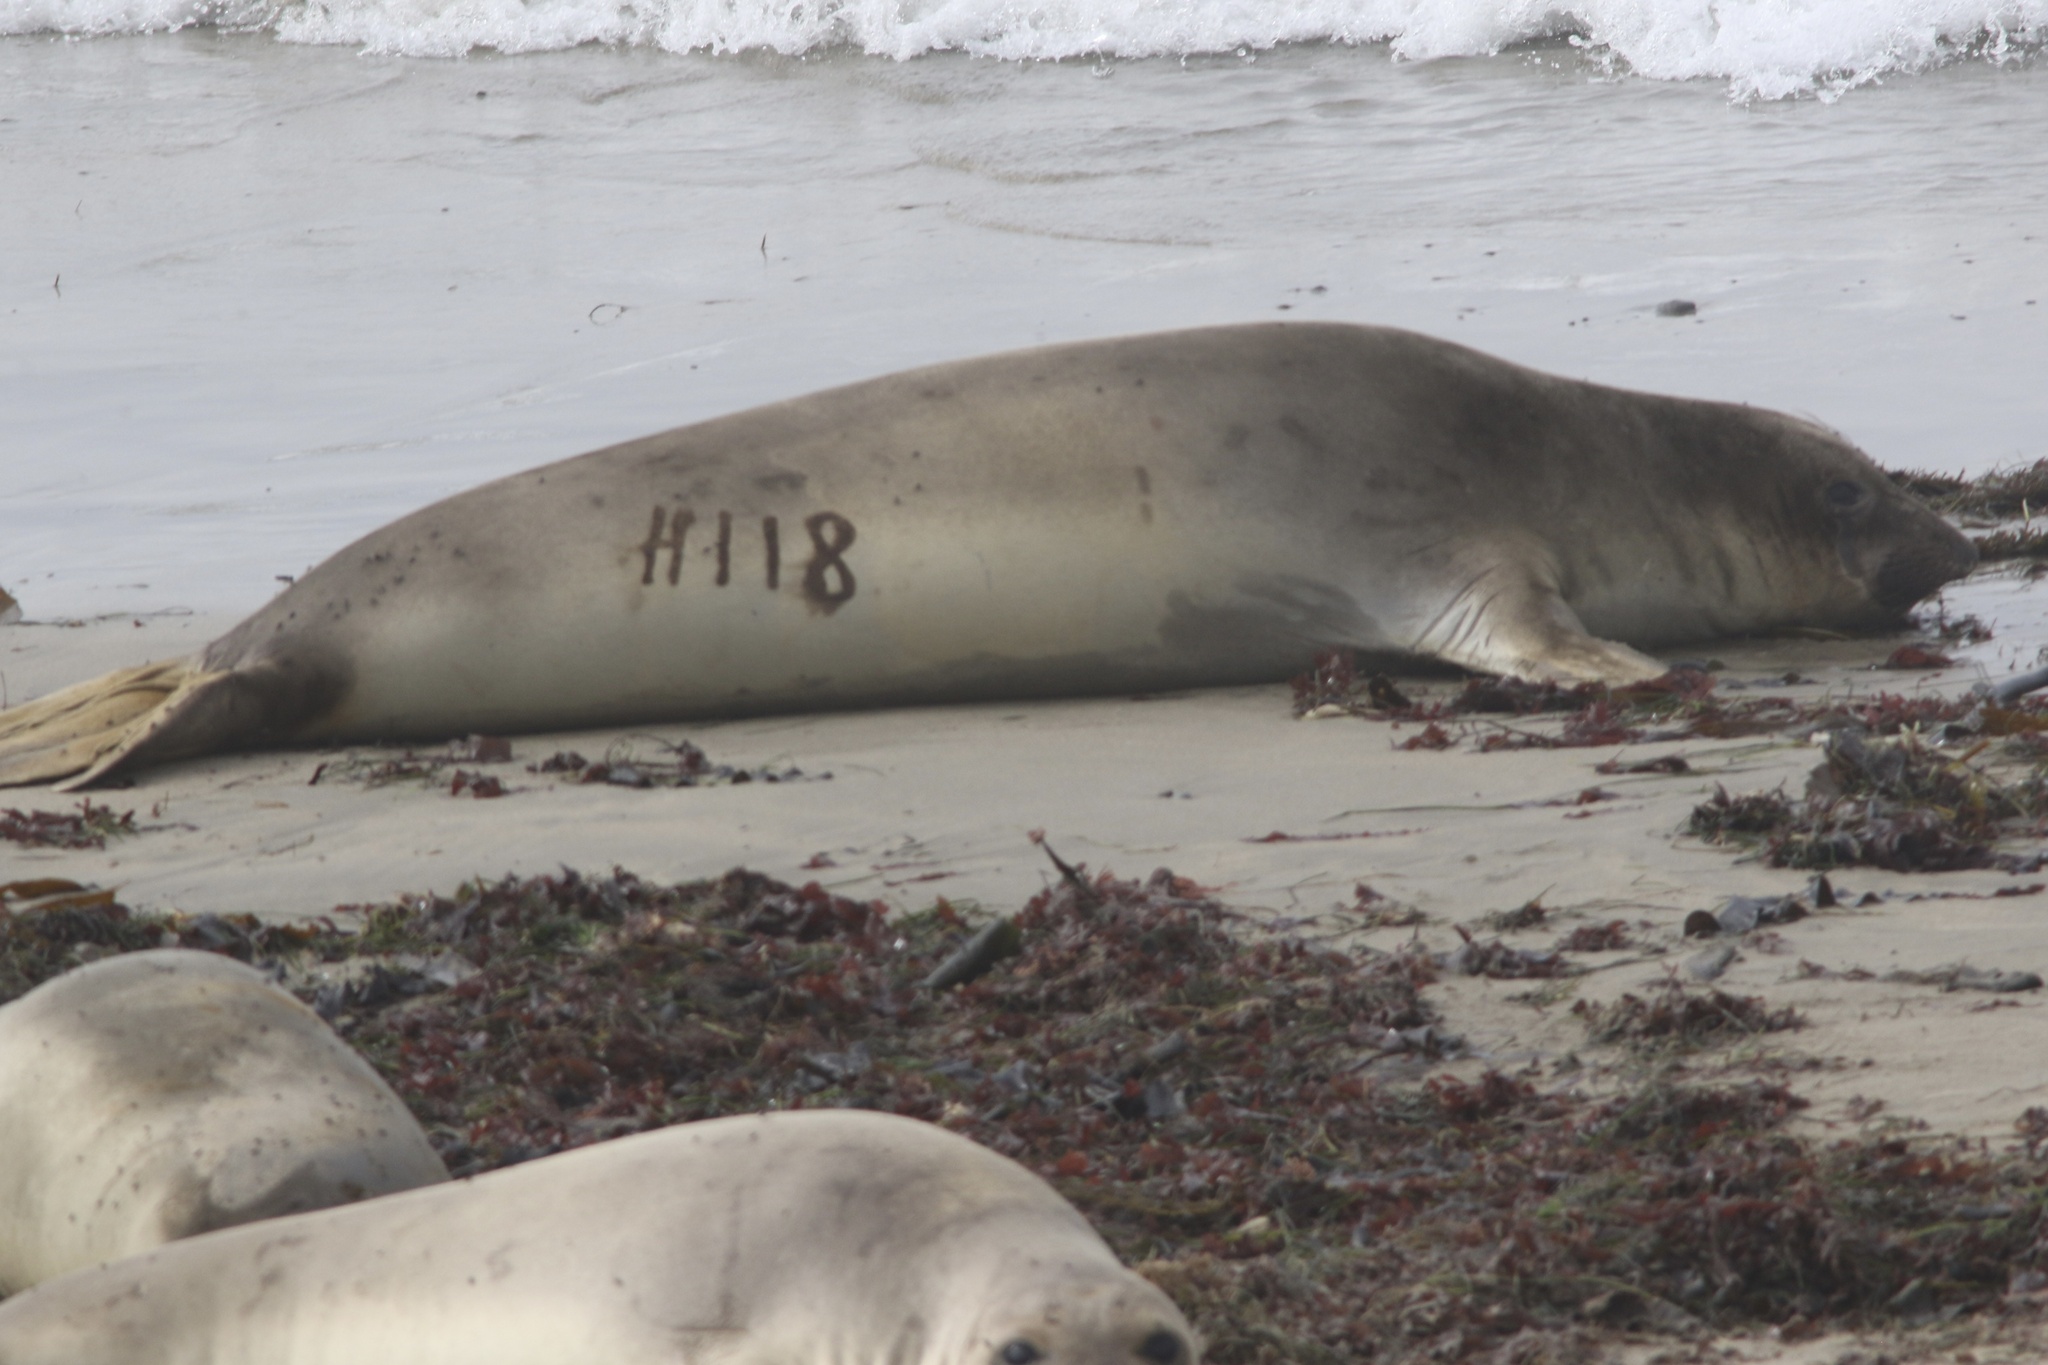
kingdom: Animalia
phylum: Chordata
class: Mammalia
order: Carnivora
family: Phocidae
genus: Mirounga
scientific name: Mirounga angustirostris
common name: Northern elephant seal
